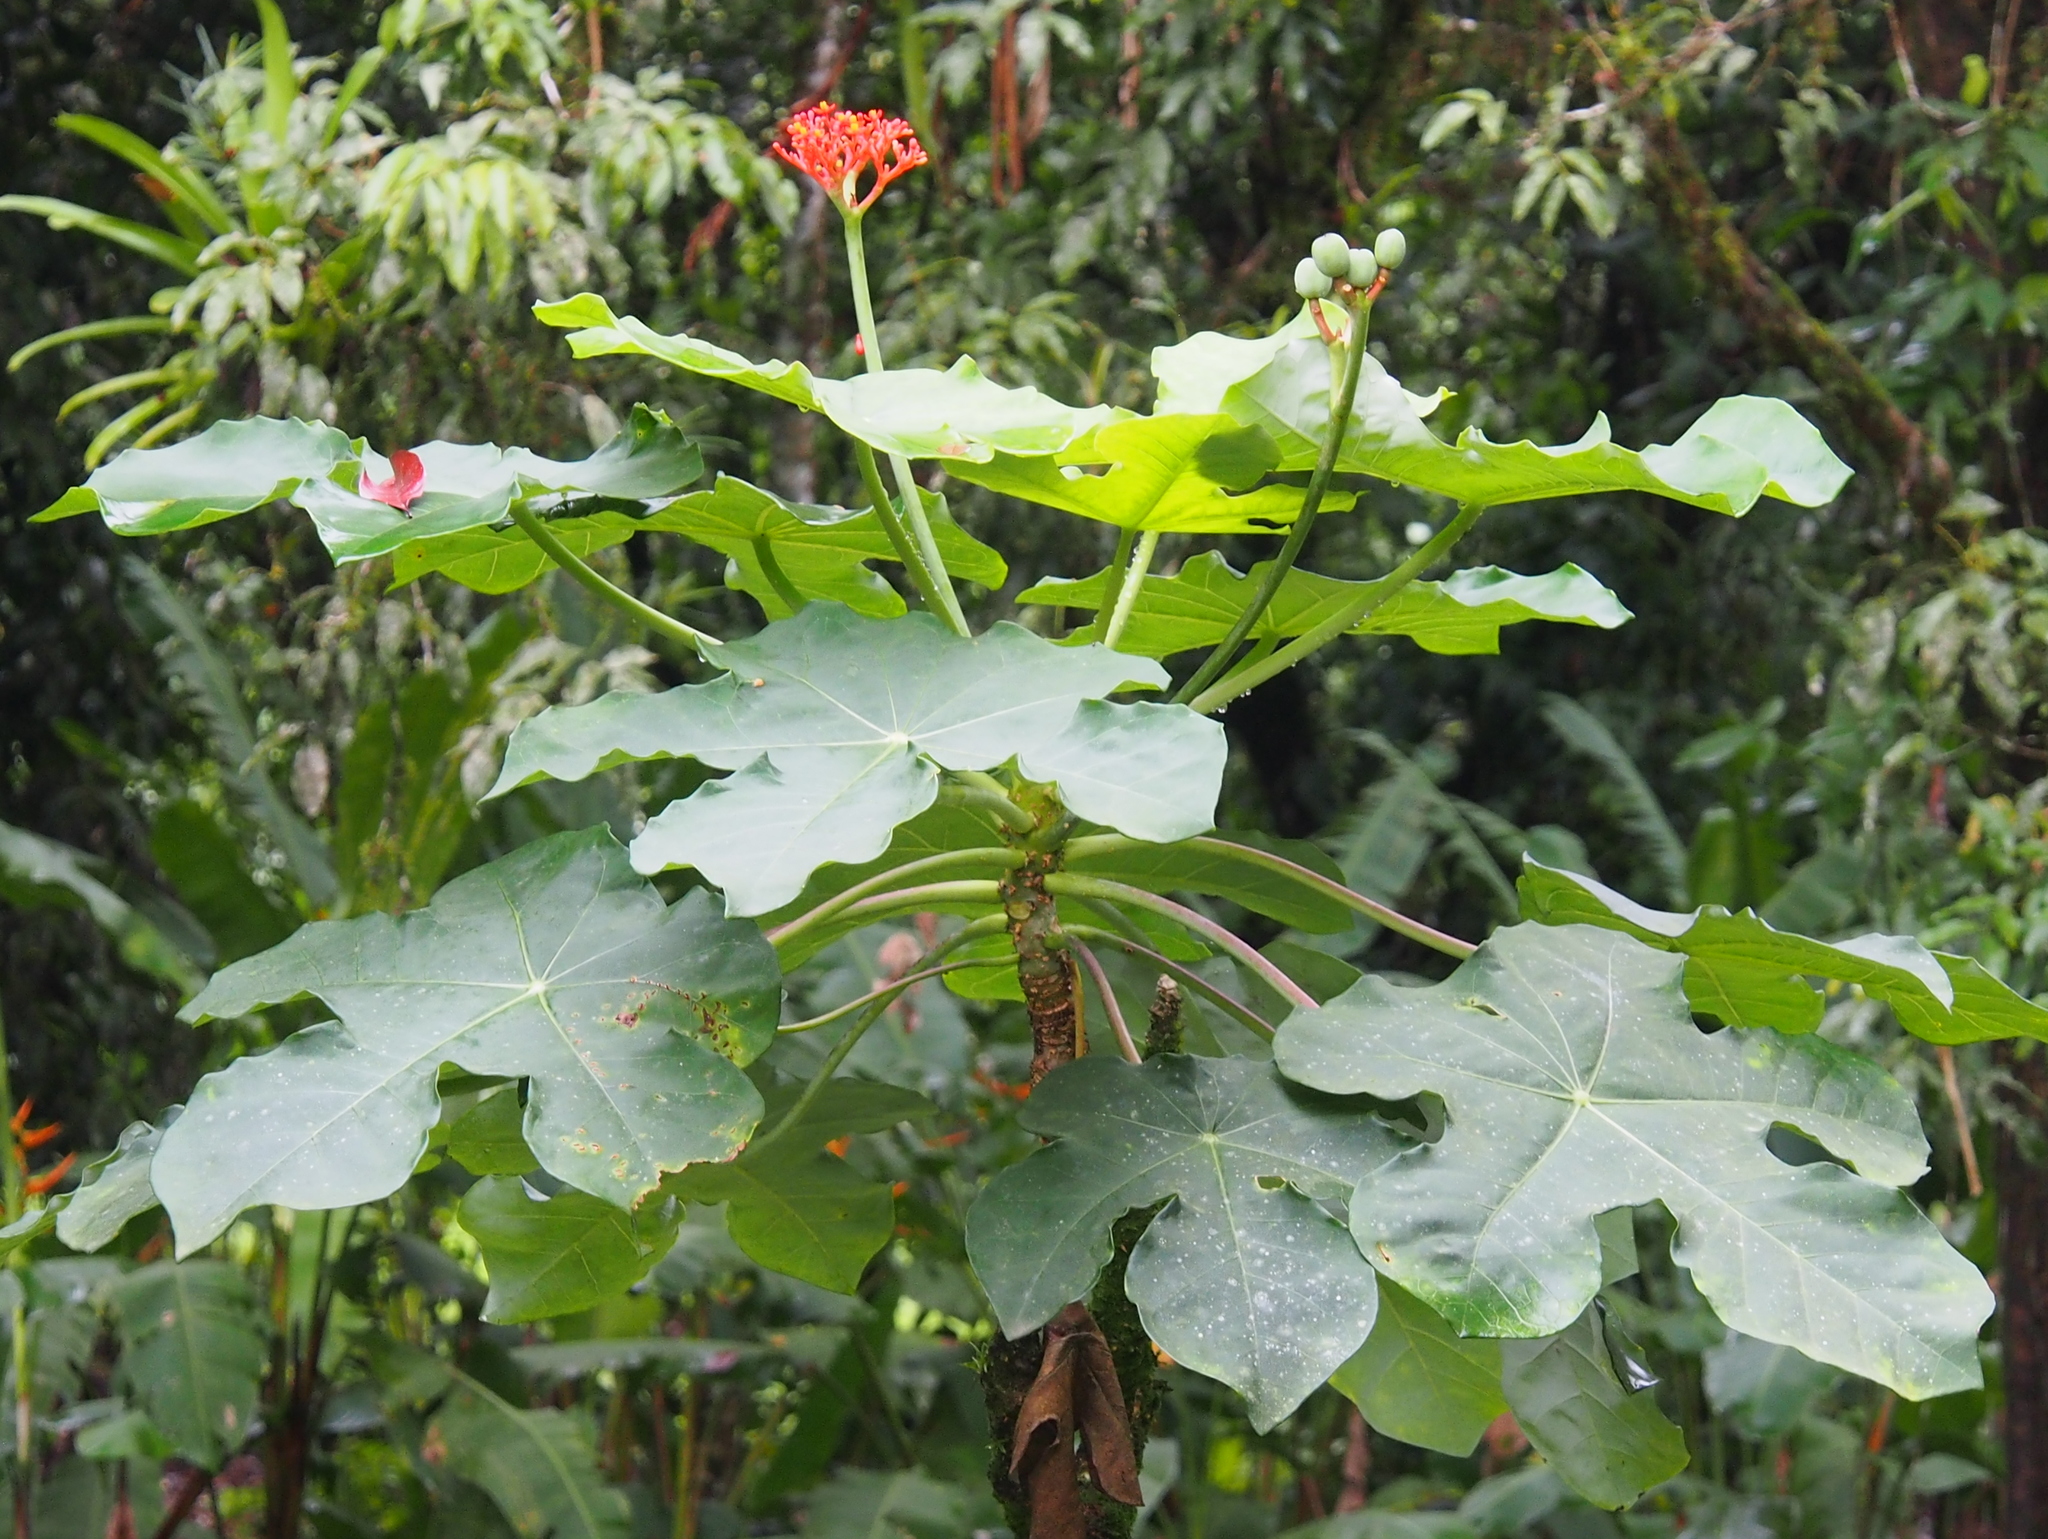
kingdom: Plantae
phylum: Tracheophyta
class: Magnoliopsida
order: Malpighiales
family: Euphorbiaceae
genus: Jatropha
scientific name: Jatropha podagrica
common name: Gout stalk
